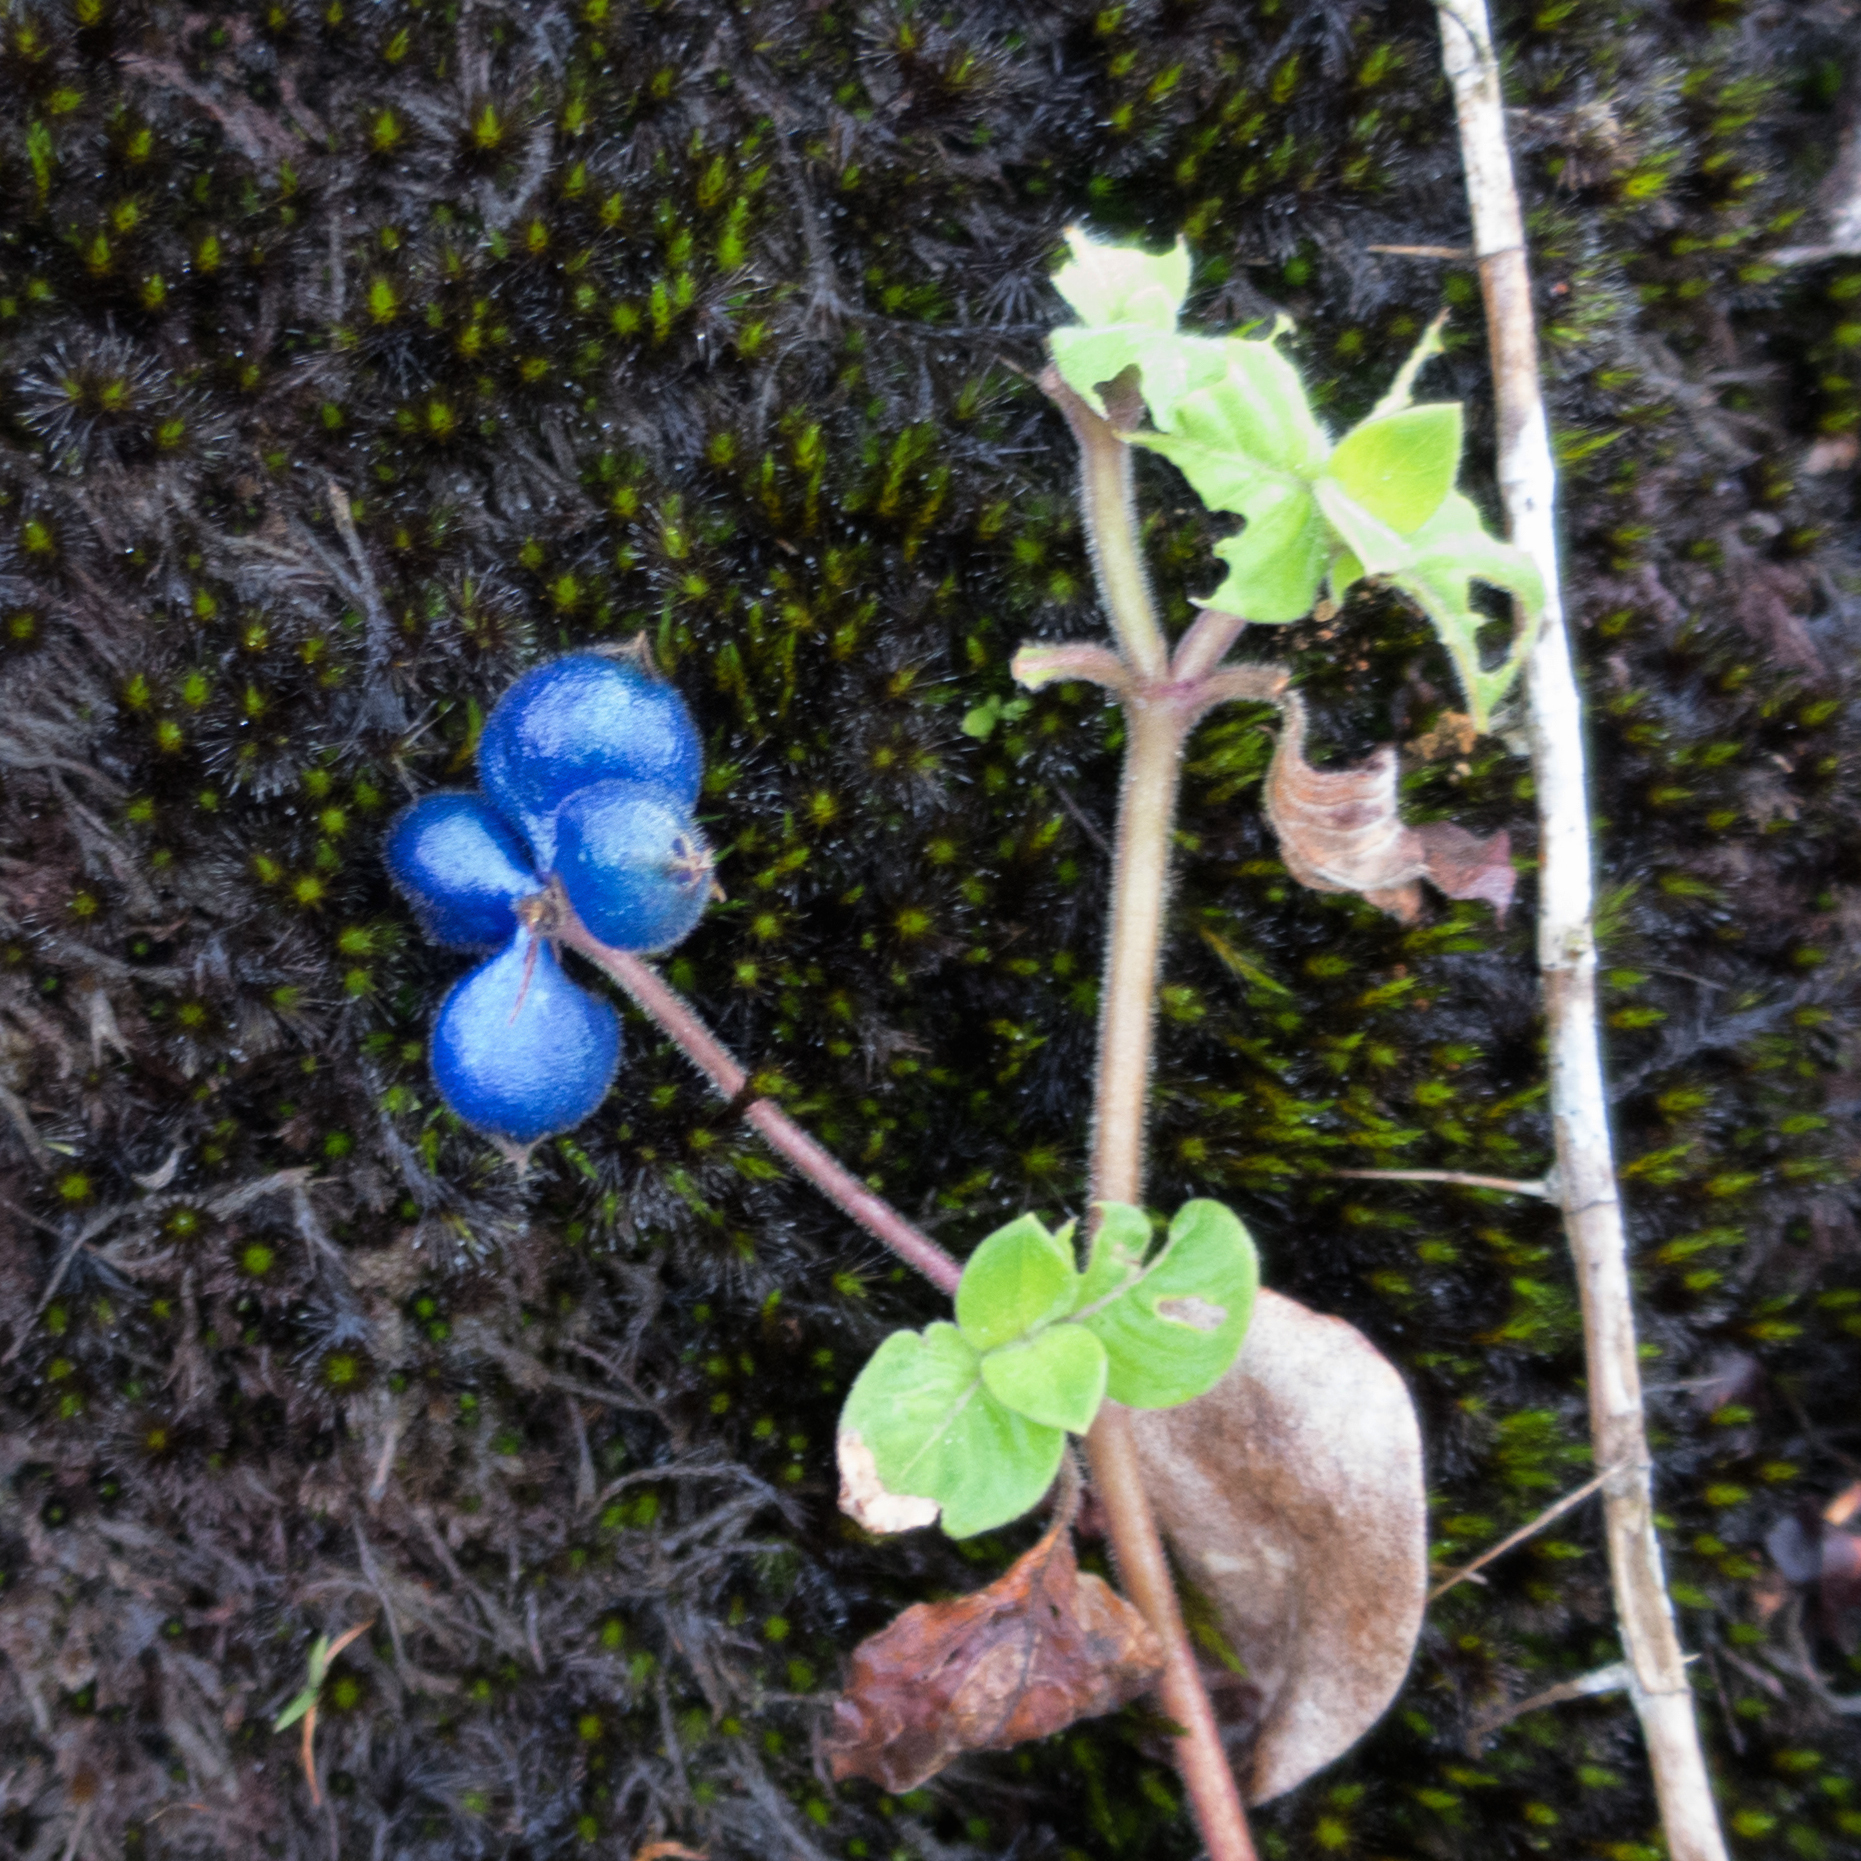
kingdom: Plantae
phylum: Tracheophyta
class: Magnoliopsida
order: Gentianales
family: Rubiaceae
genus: Coccocypselum
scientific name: Coccocypselum hispidulum
